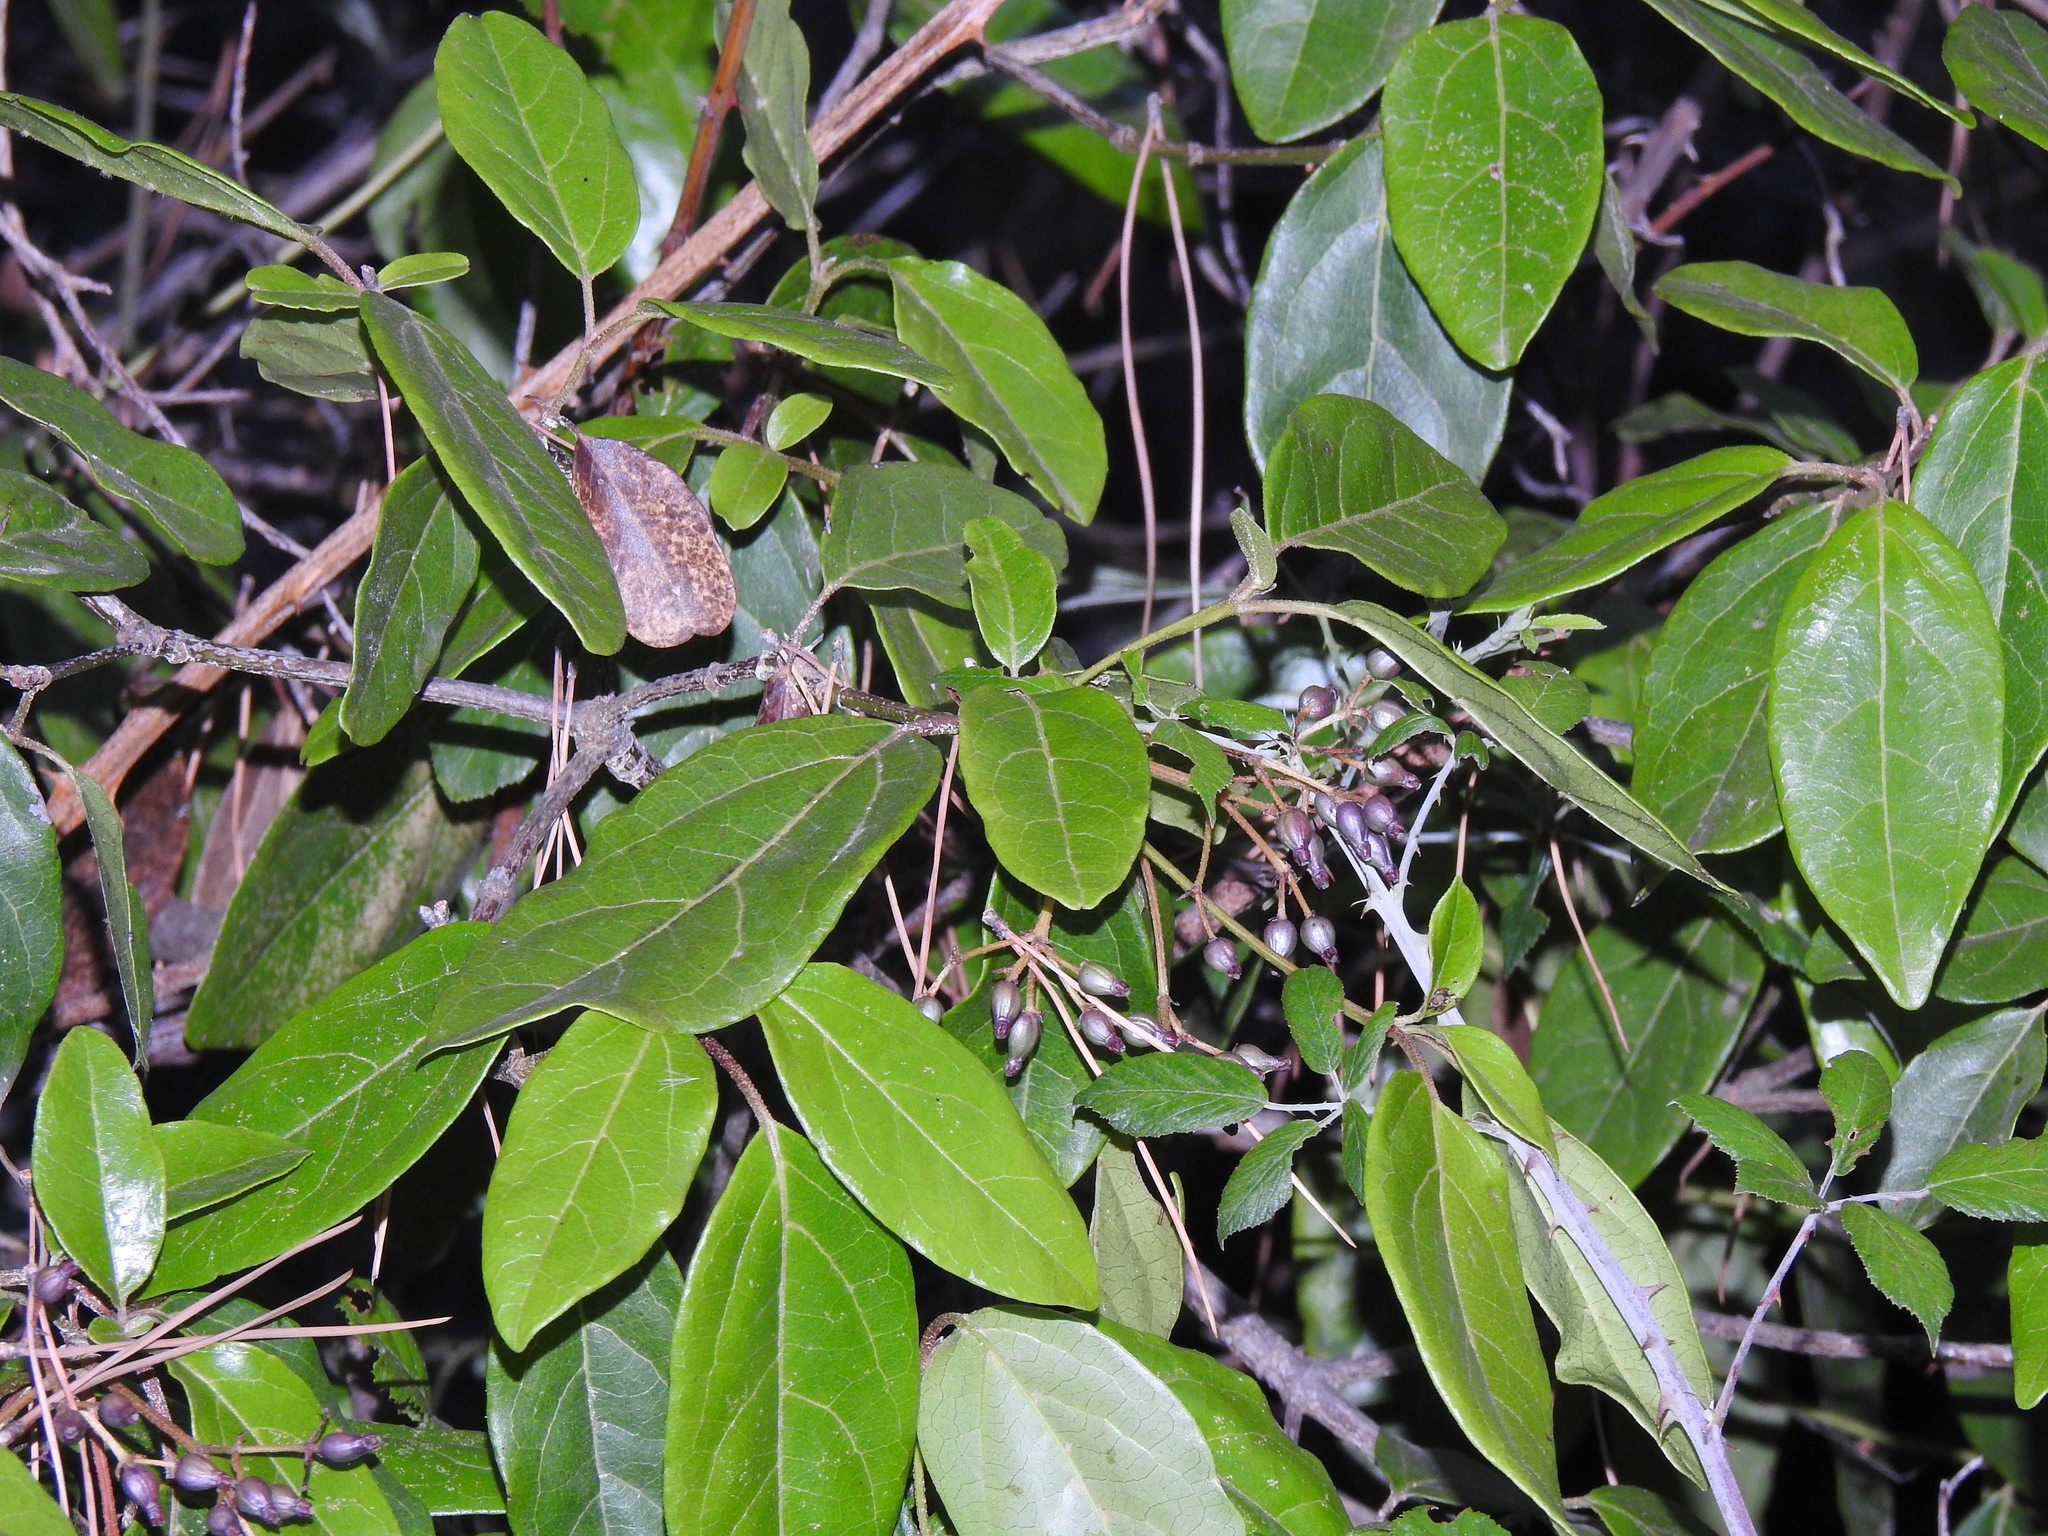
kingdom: Plantae
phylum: Tracheophyta
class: Magnoliopsida
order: Dipsacales
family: Viburnaceae
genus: Viburnum
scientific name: Viburnum tinus
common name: Laurustinus
